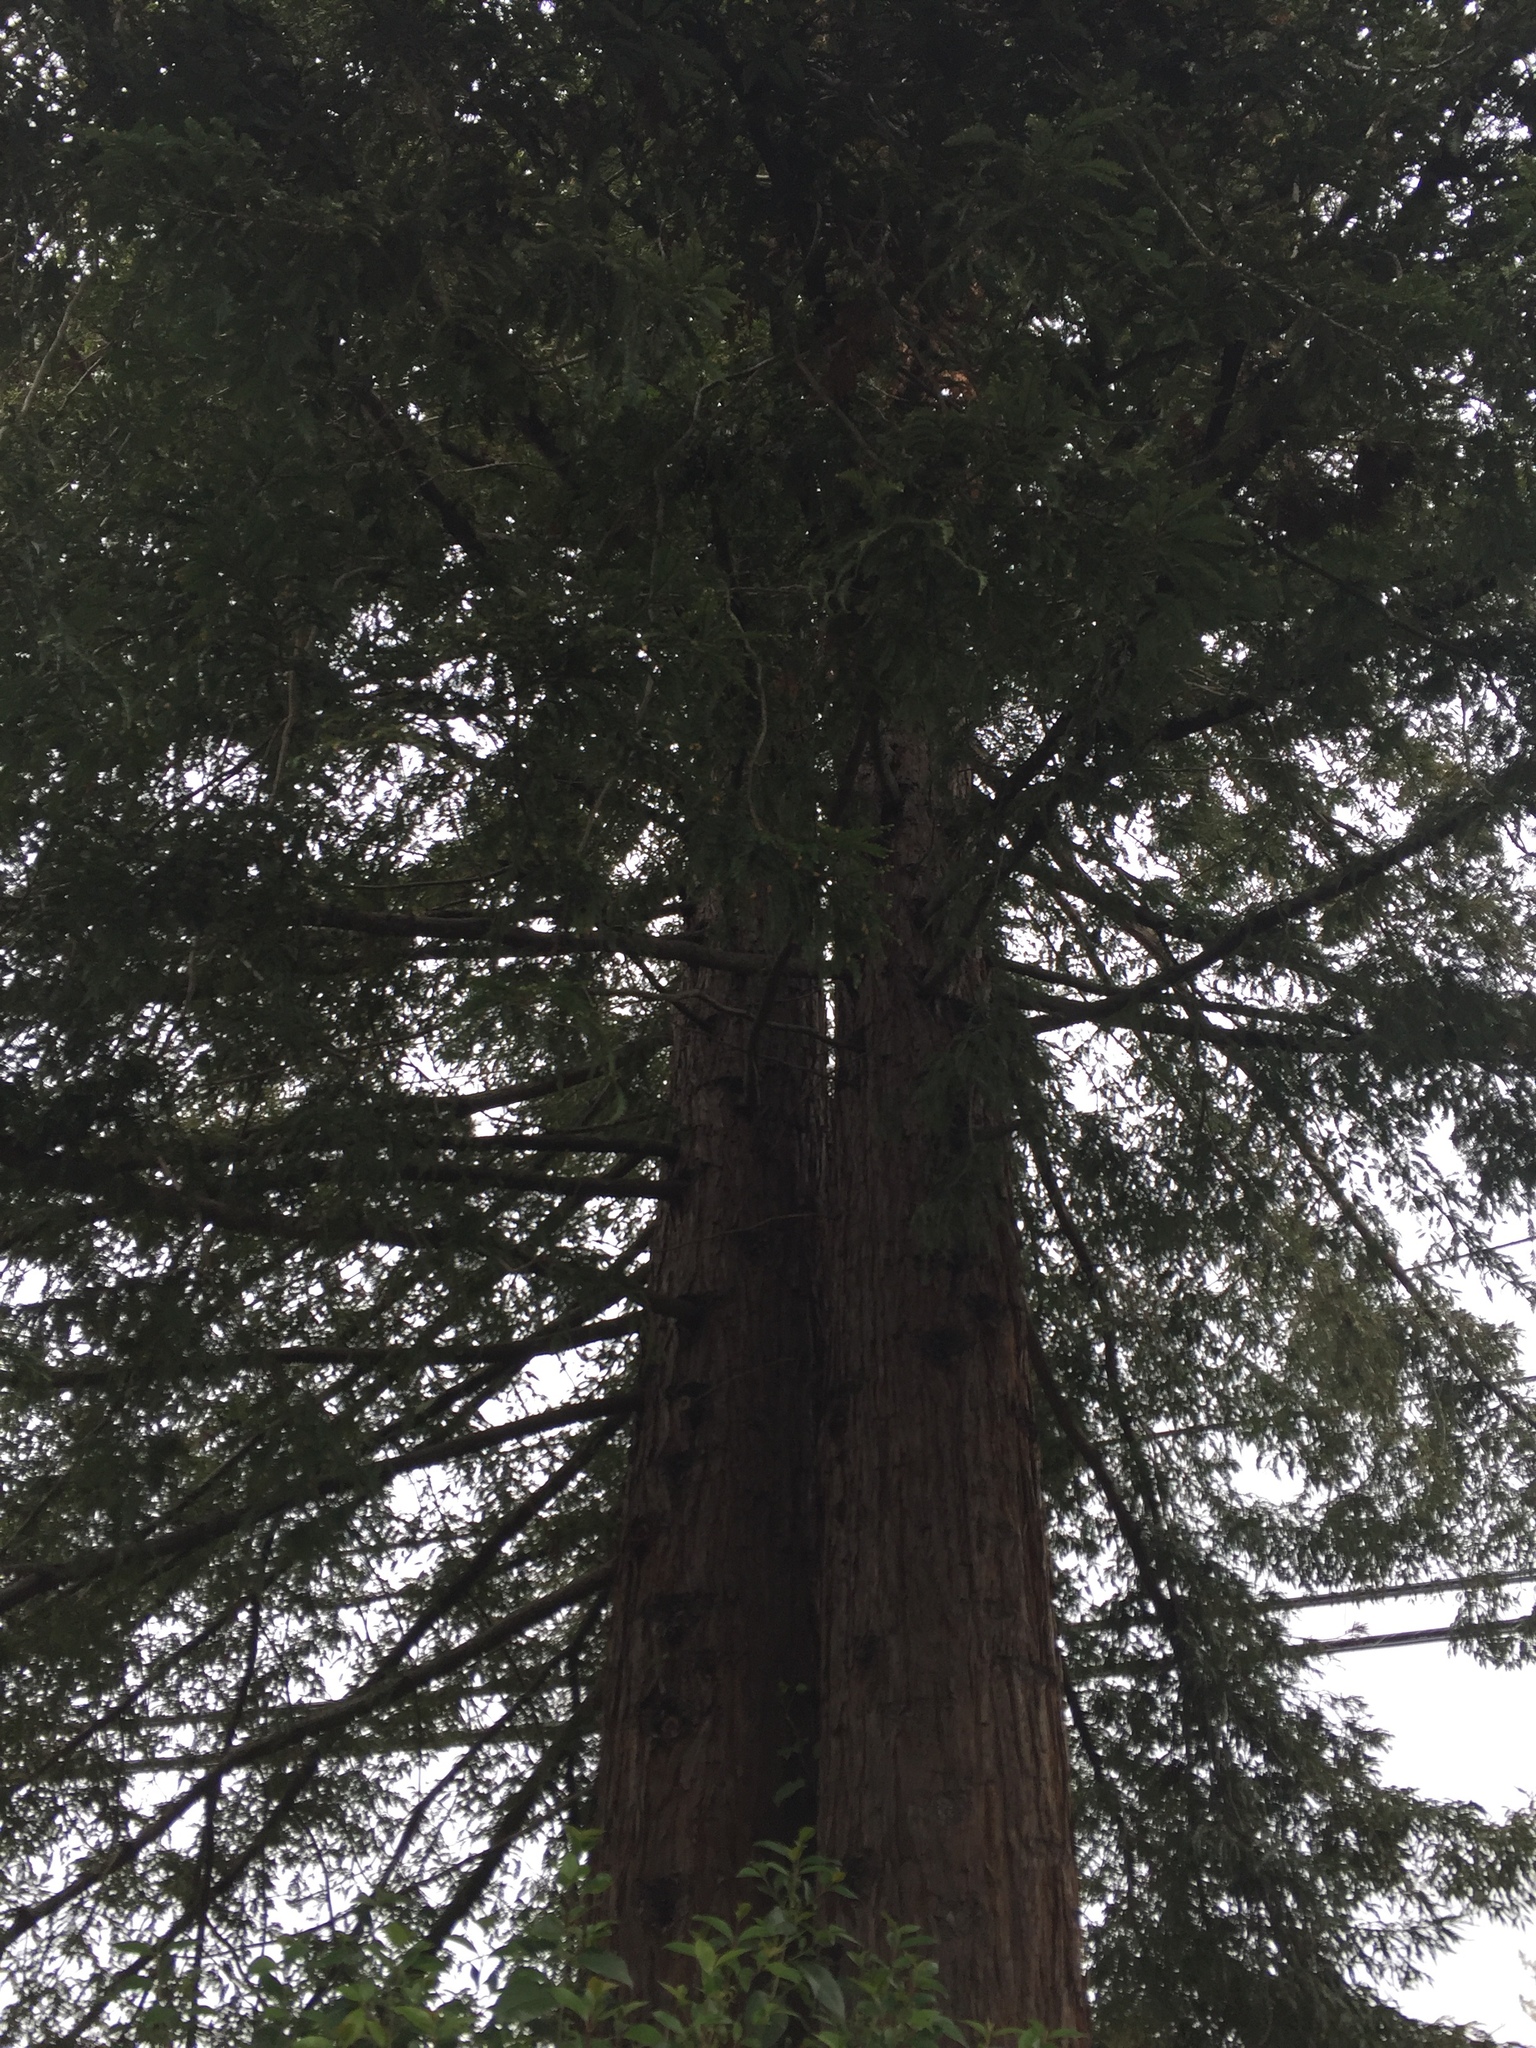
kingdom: Plantae
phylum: Tracheophyta
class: Pinopsida
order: Pinales
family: Cupressaceae
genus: Sequoia
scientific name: Sequoia sempervirens
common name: Coast redwood
